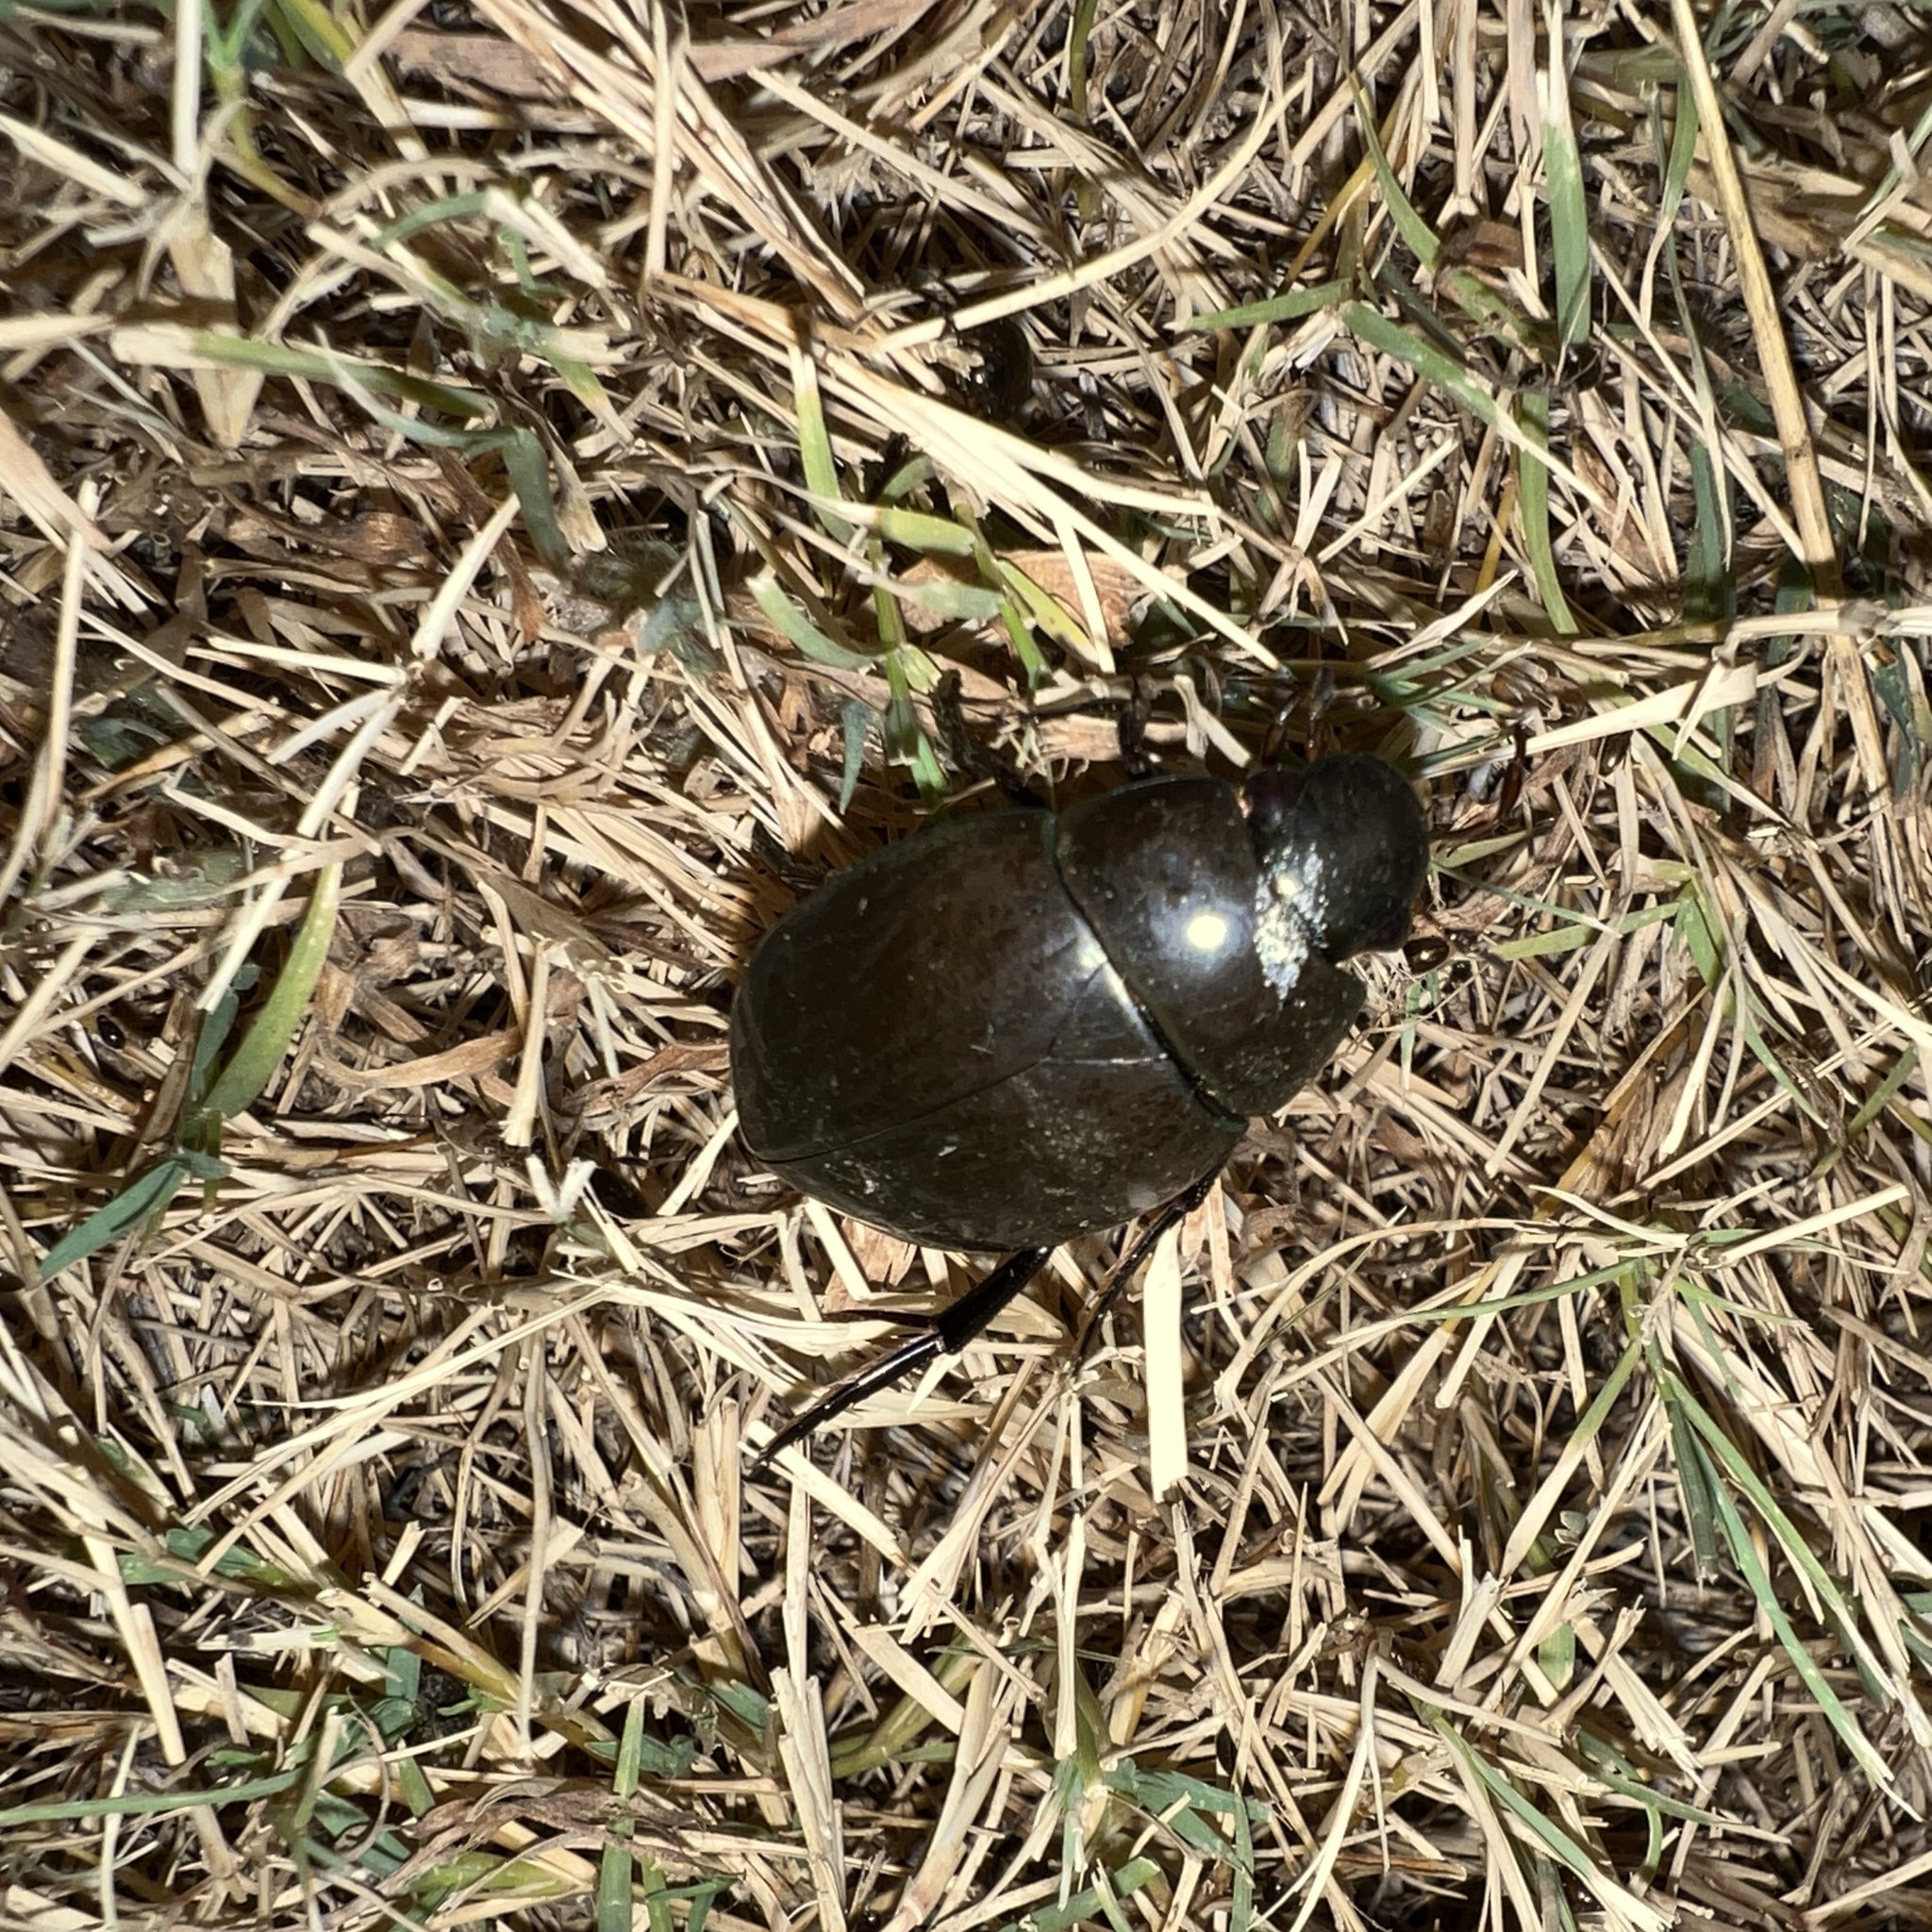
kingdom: Animalia
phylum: Arthropoda
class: Insecta
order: Coleoptera
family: Hydrophilidae
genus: Hydrophilus
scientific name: Hydrophilus ovatus
